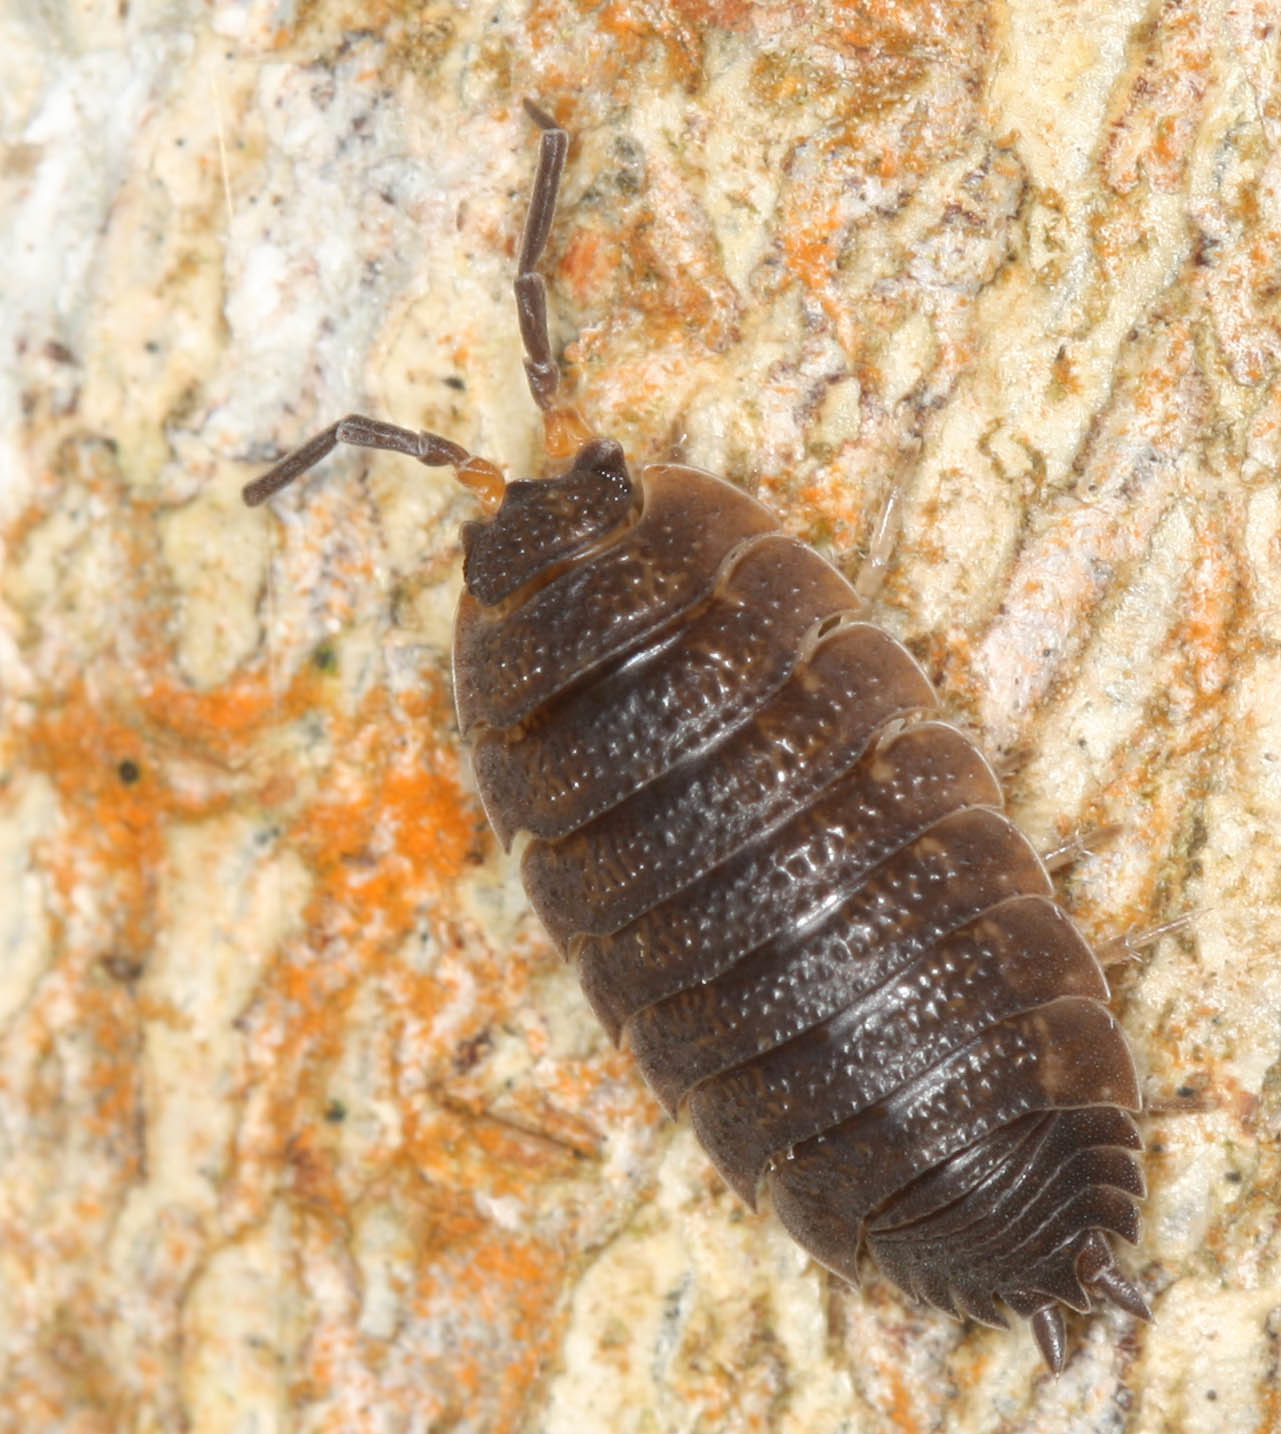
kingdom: Animalia
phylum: Arthropoda
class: Malacostraca
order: Isopoda
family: Porcellionidae
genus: Porcellio
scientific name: Porcellio scaber
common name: Common rough woodlouse
